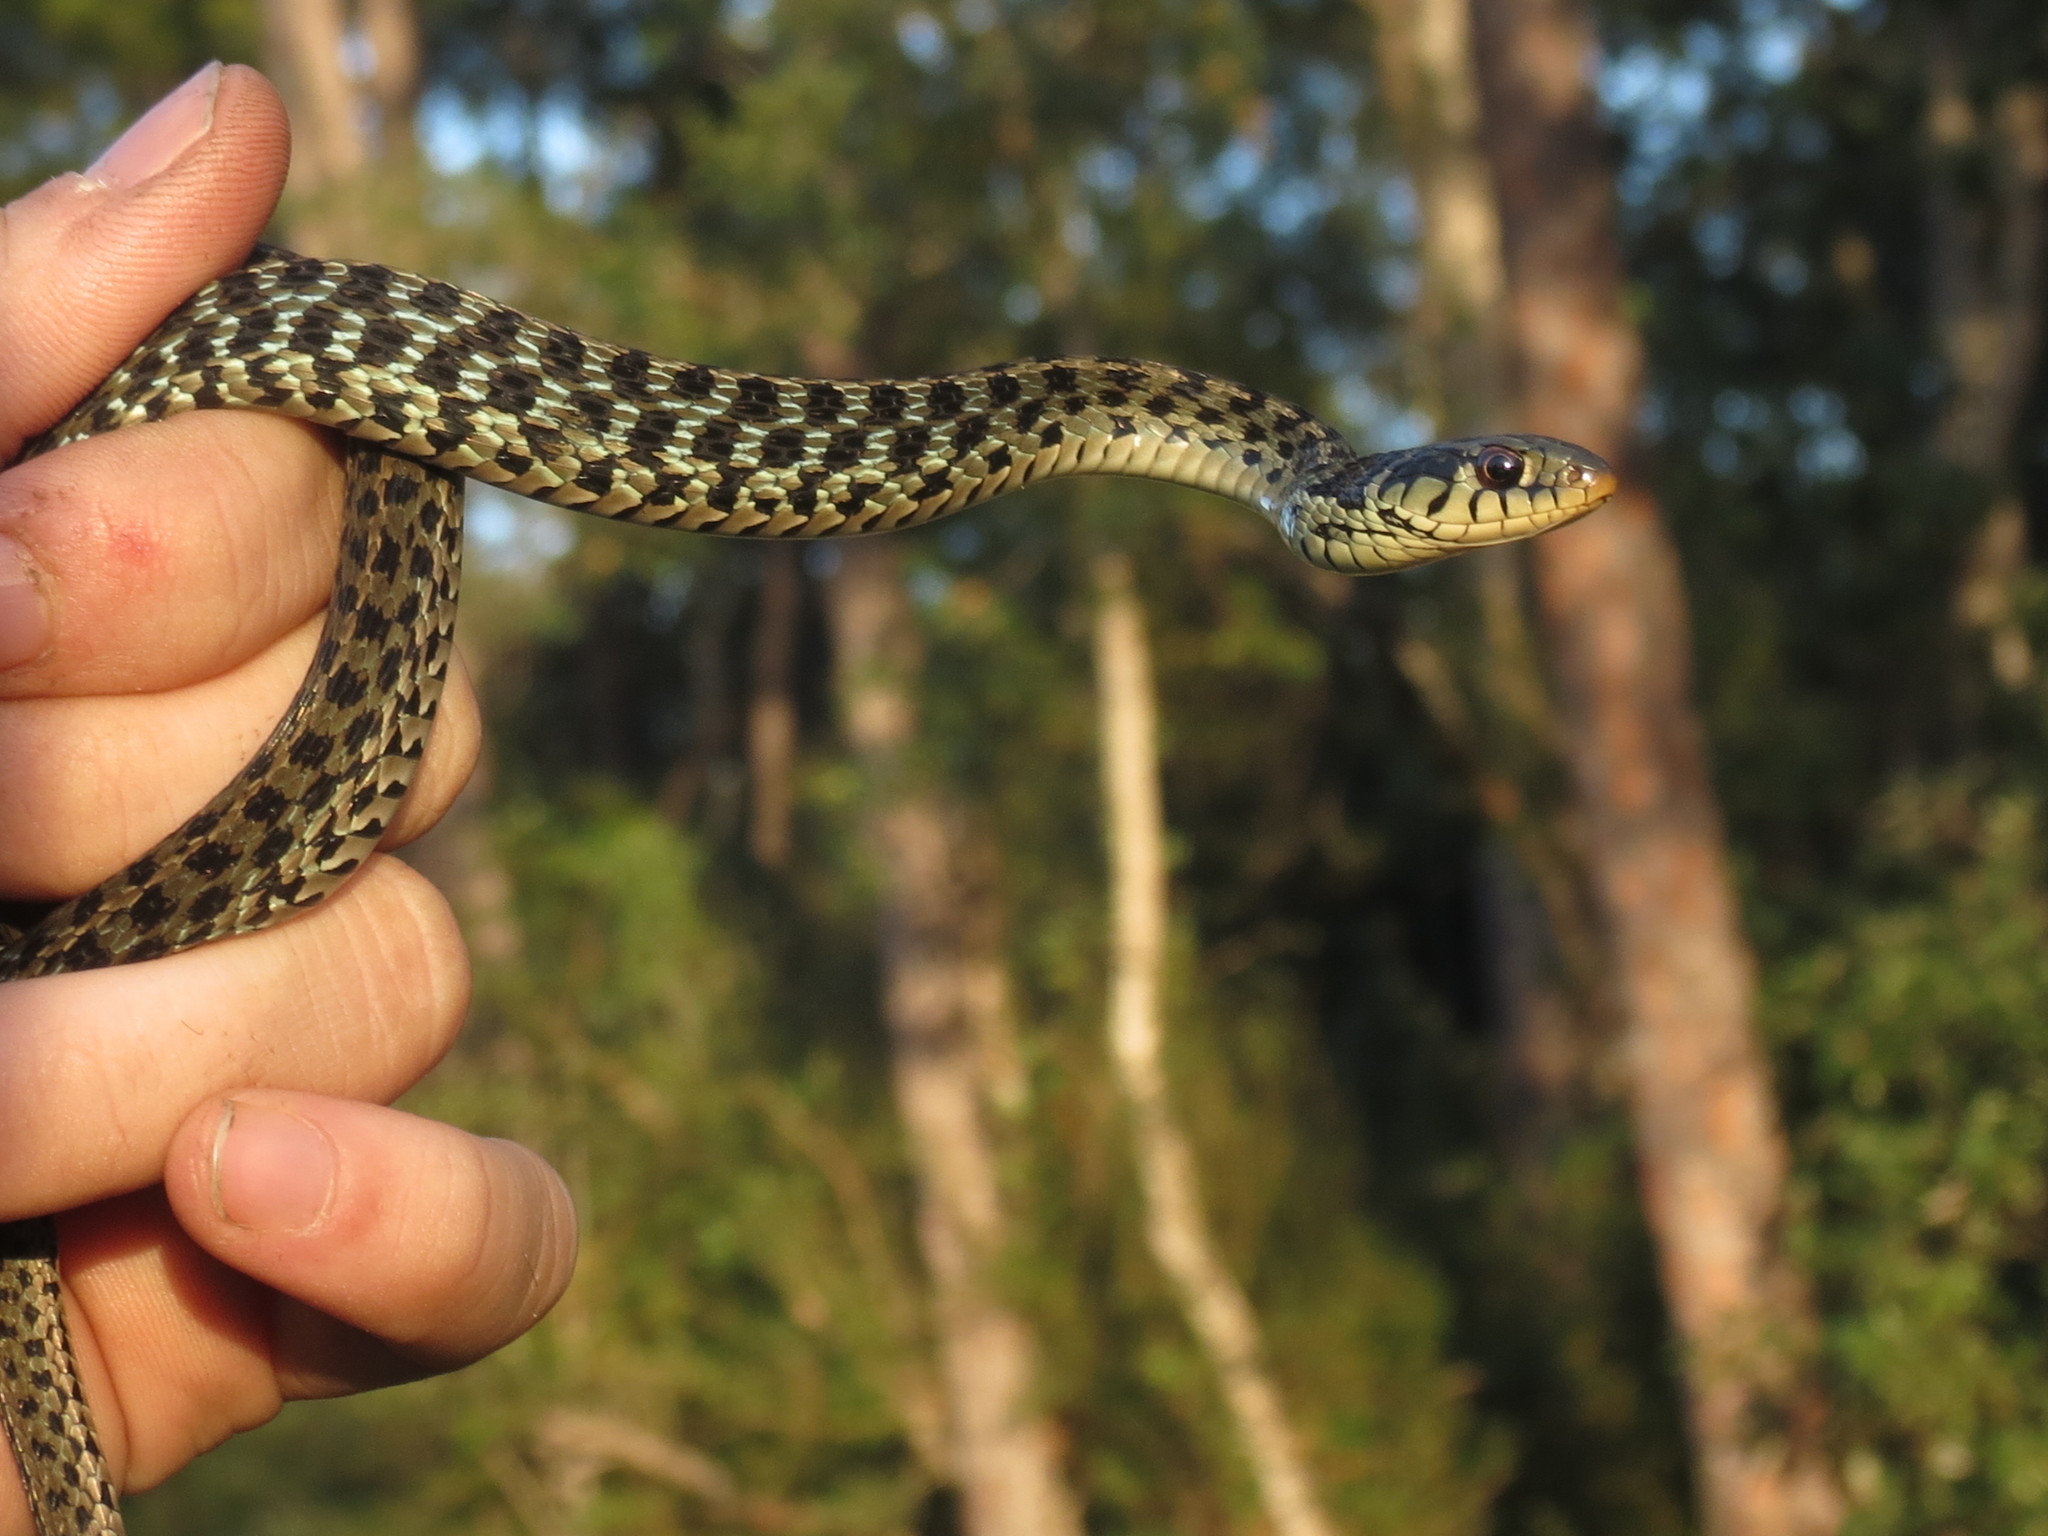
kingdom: Animalia
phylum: Chordata
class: Squamata
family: Colubridae
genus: Thamnophis
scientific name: Thamnophis sirtalis
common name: Common garter snake
